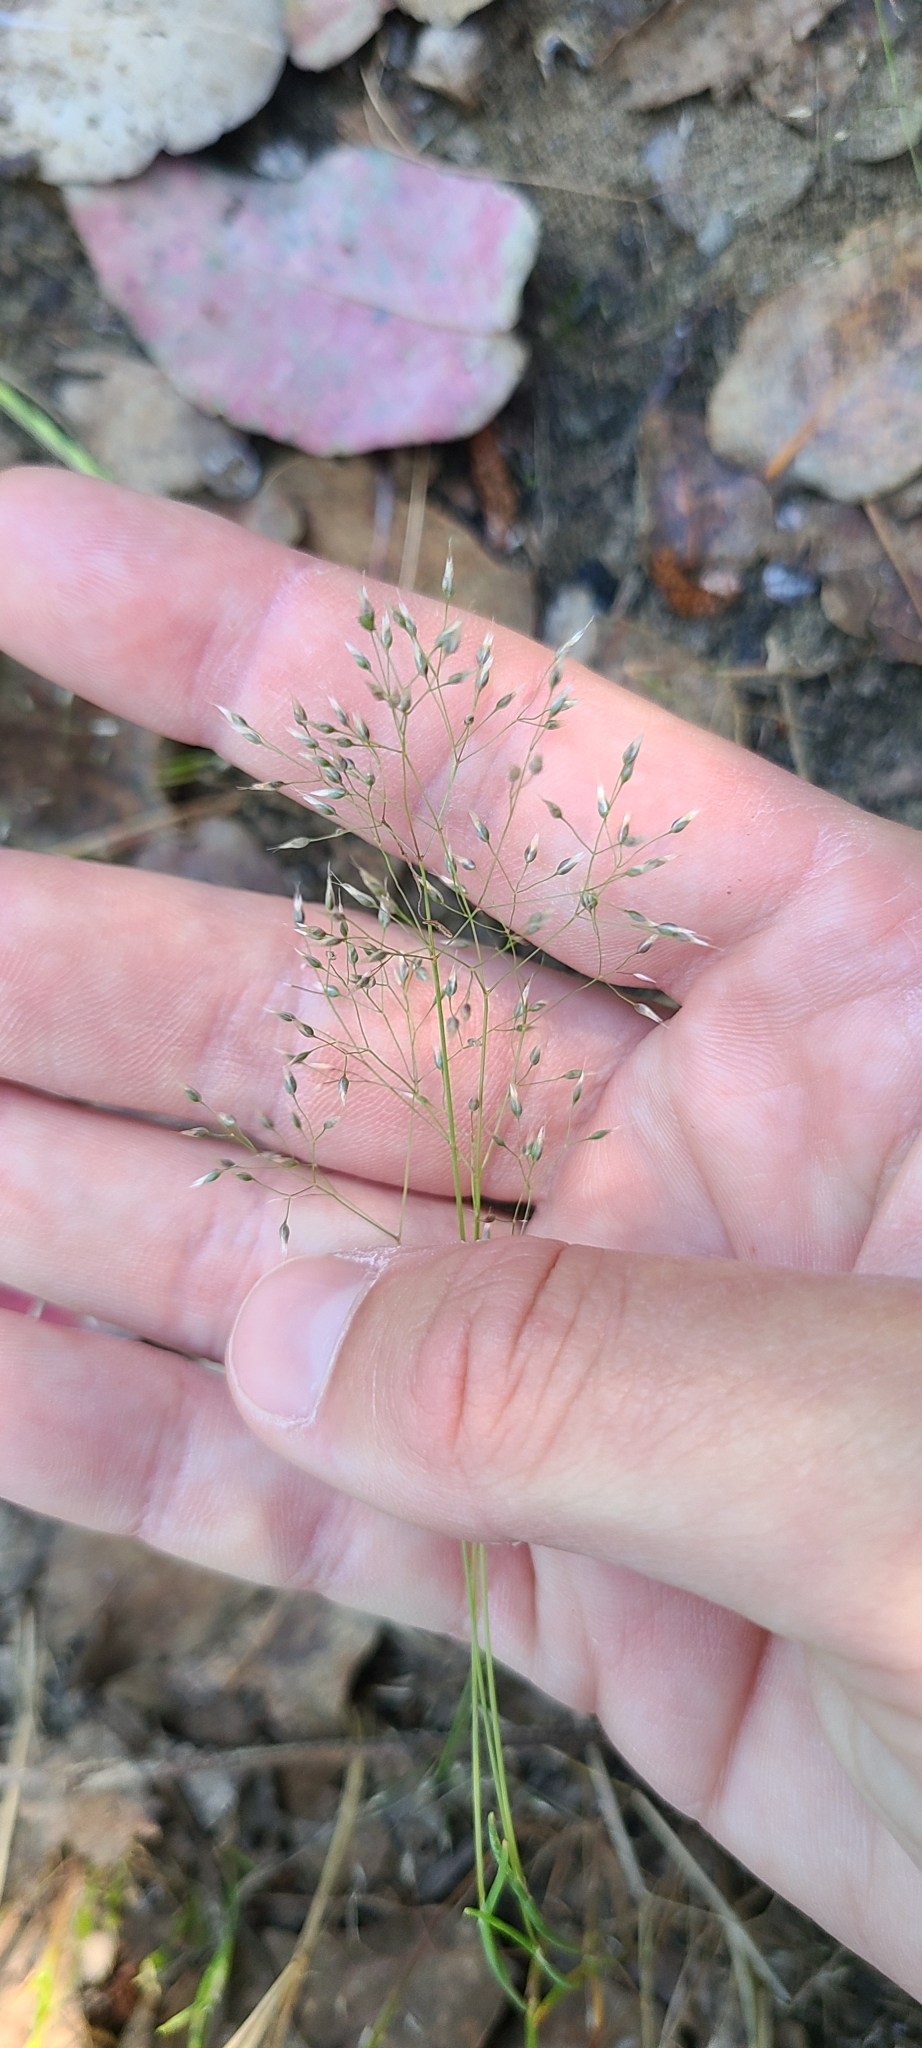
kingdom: Plantae
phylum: Tracheophyta
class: Liliopsida
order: Poales
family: Poaceae
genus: Aira
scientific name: Aira caryophyllea
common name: Silver hairgrass
